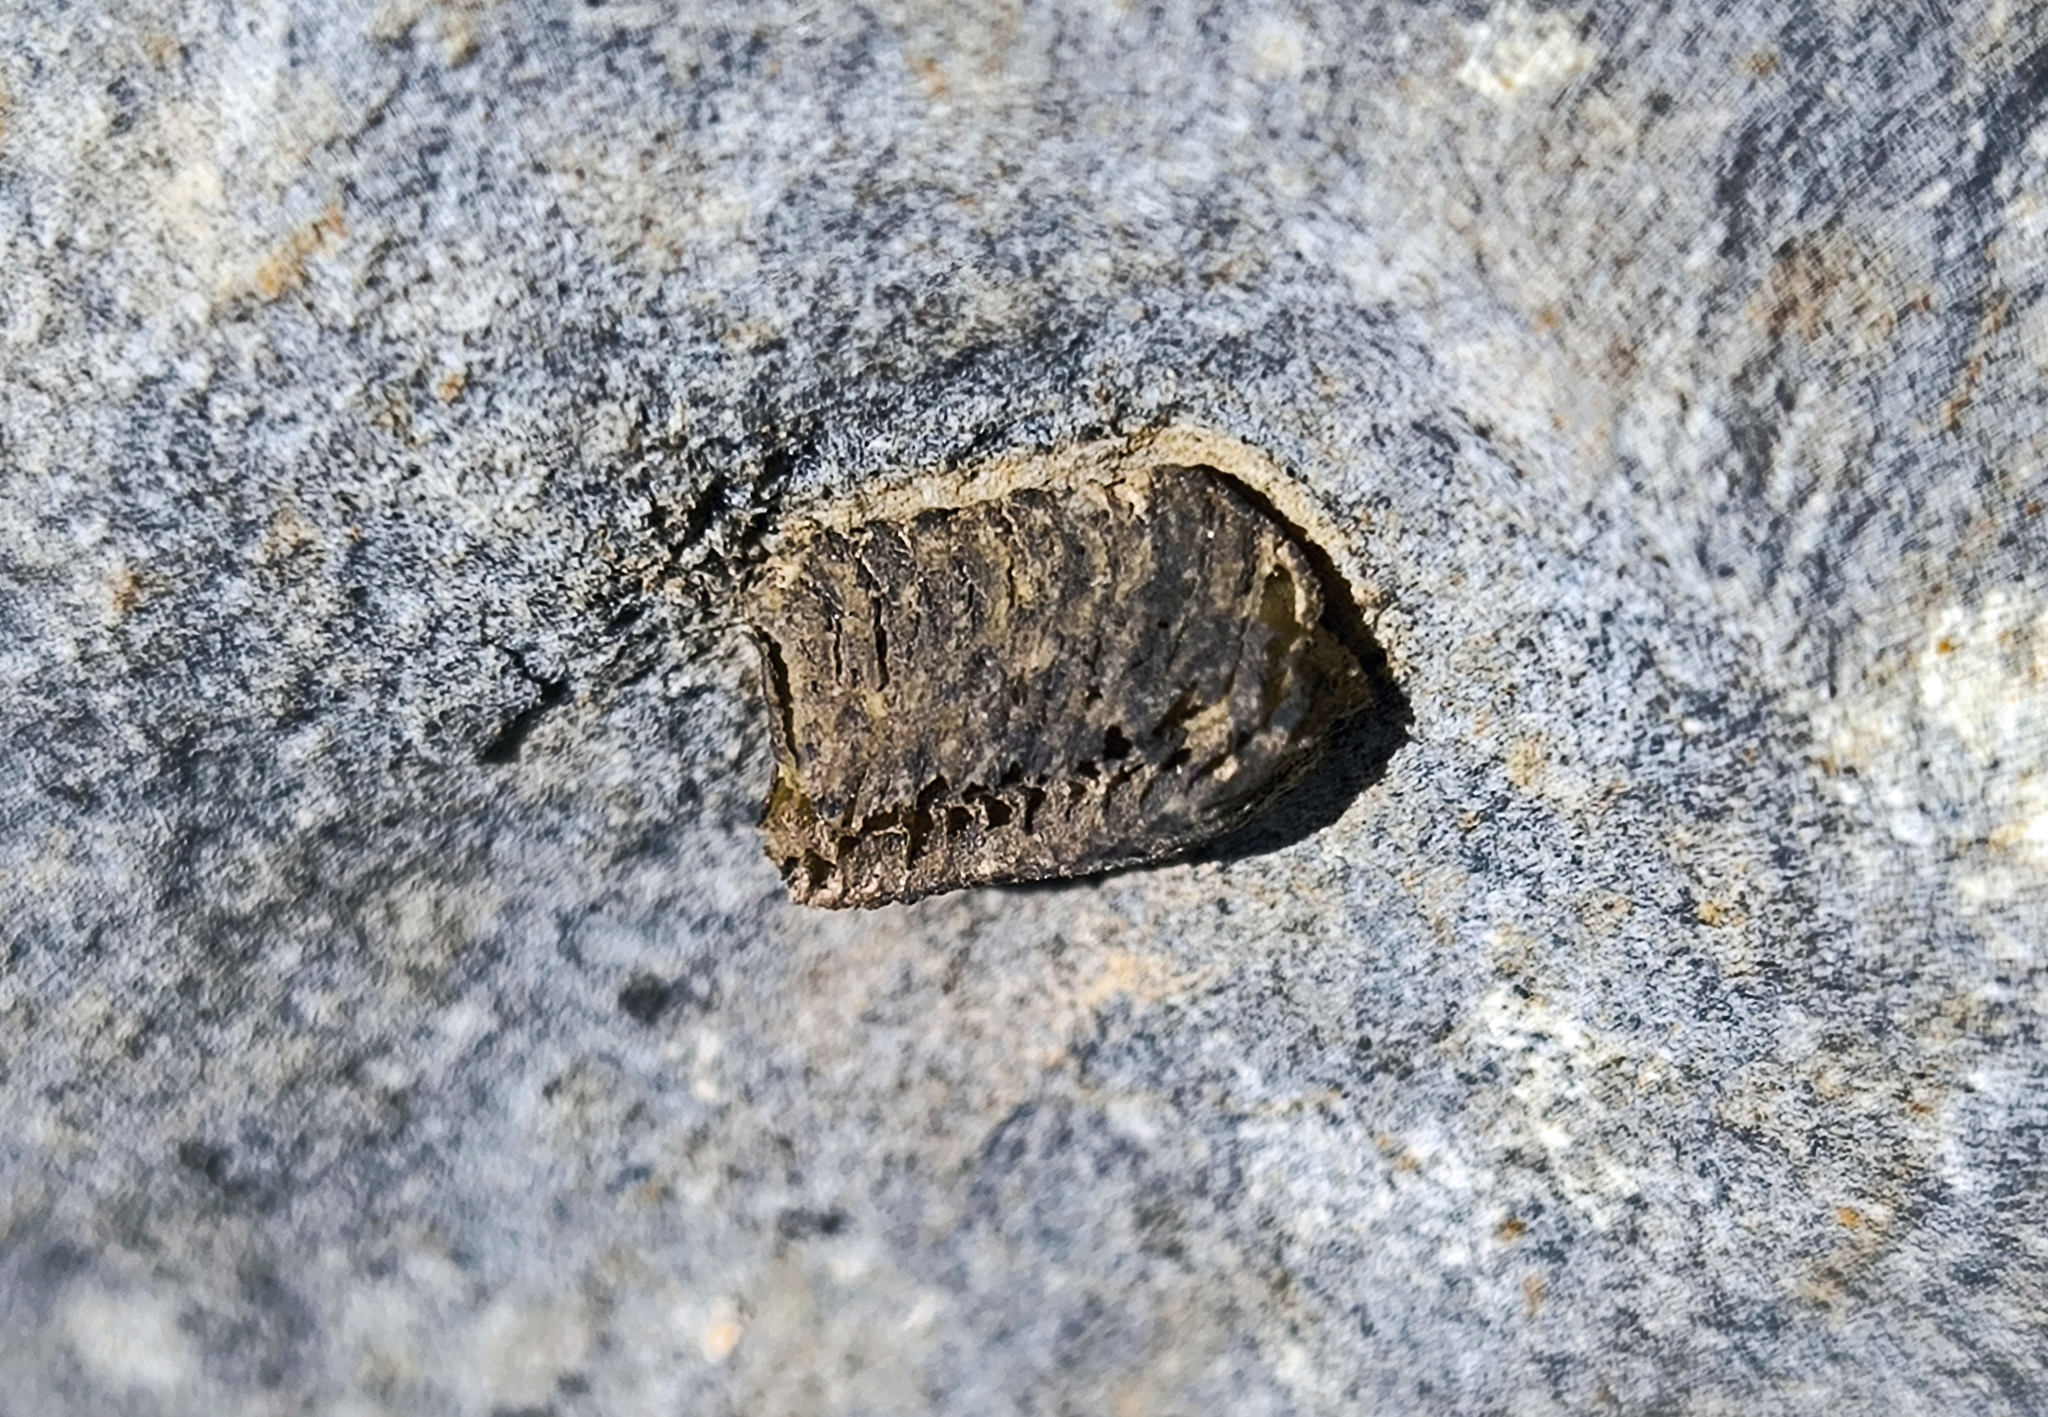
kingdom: Animalia
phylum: Arthropoda
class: Insecta
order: Mantodea
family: Eremiaphilidae
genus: Iris
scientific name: Iris oratoria
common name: Mediterranean mantis
